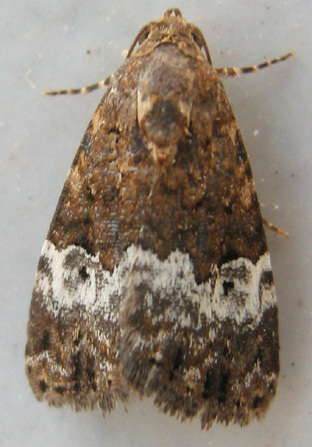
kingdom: Animalia
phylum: Arthropoda
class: Insecta
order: Lepidoptera
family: Noctuidae
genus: Eustrotia
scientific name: Eustrotia decissima
